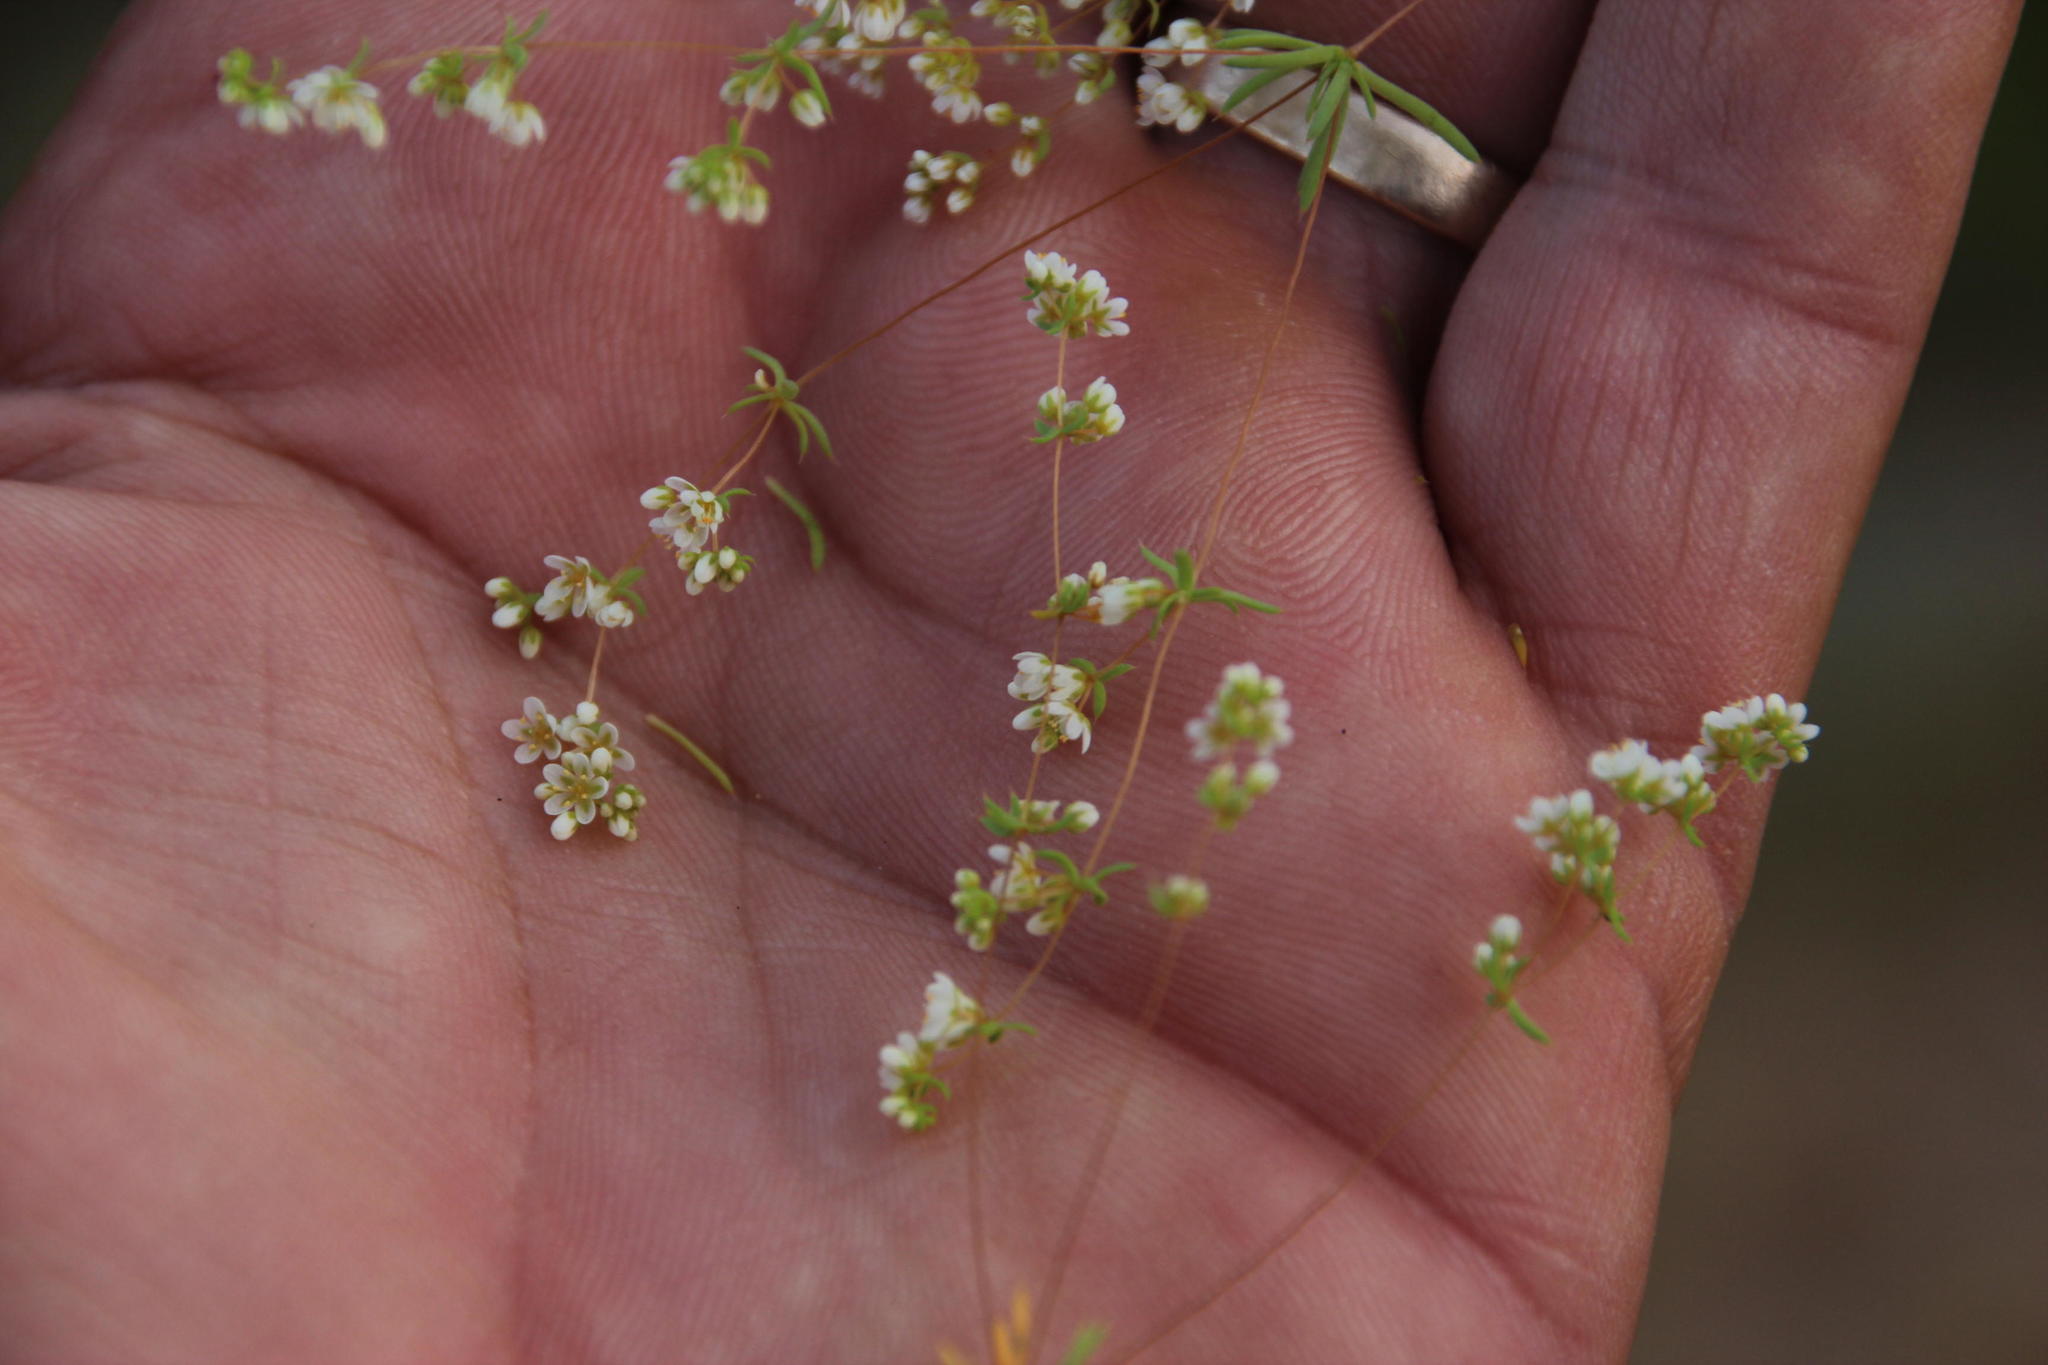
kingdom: Plantae
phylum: Tracheophyta
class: Magnoliopsida
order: Caryophyllales
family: Molluginaceae
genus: Adenogramma
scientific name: Adenogramma mollugo
